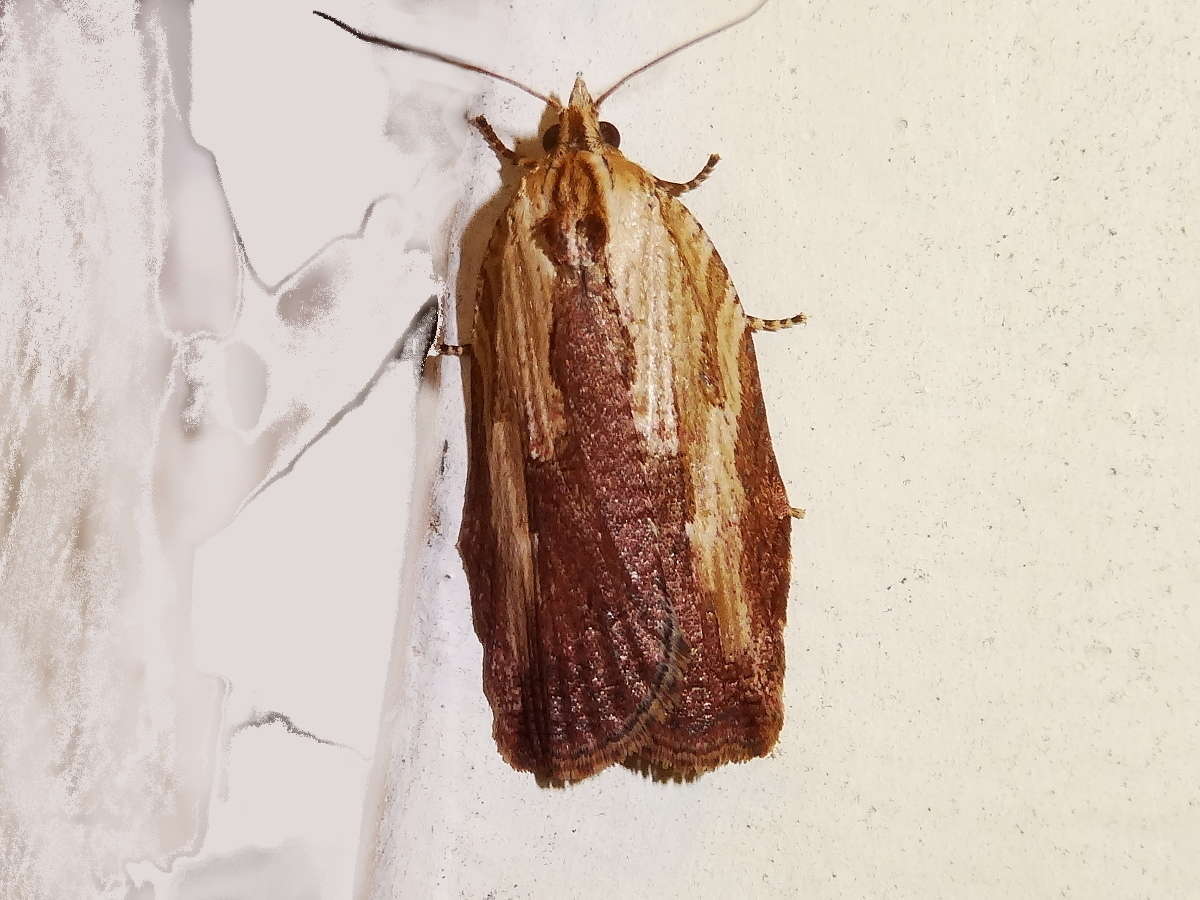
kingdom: Animalia
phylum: Arthropoda
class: Insecta
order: Lepidoptera
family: Tortricidae
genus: Cryptoptila
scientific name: Cryptoptila immersana
